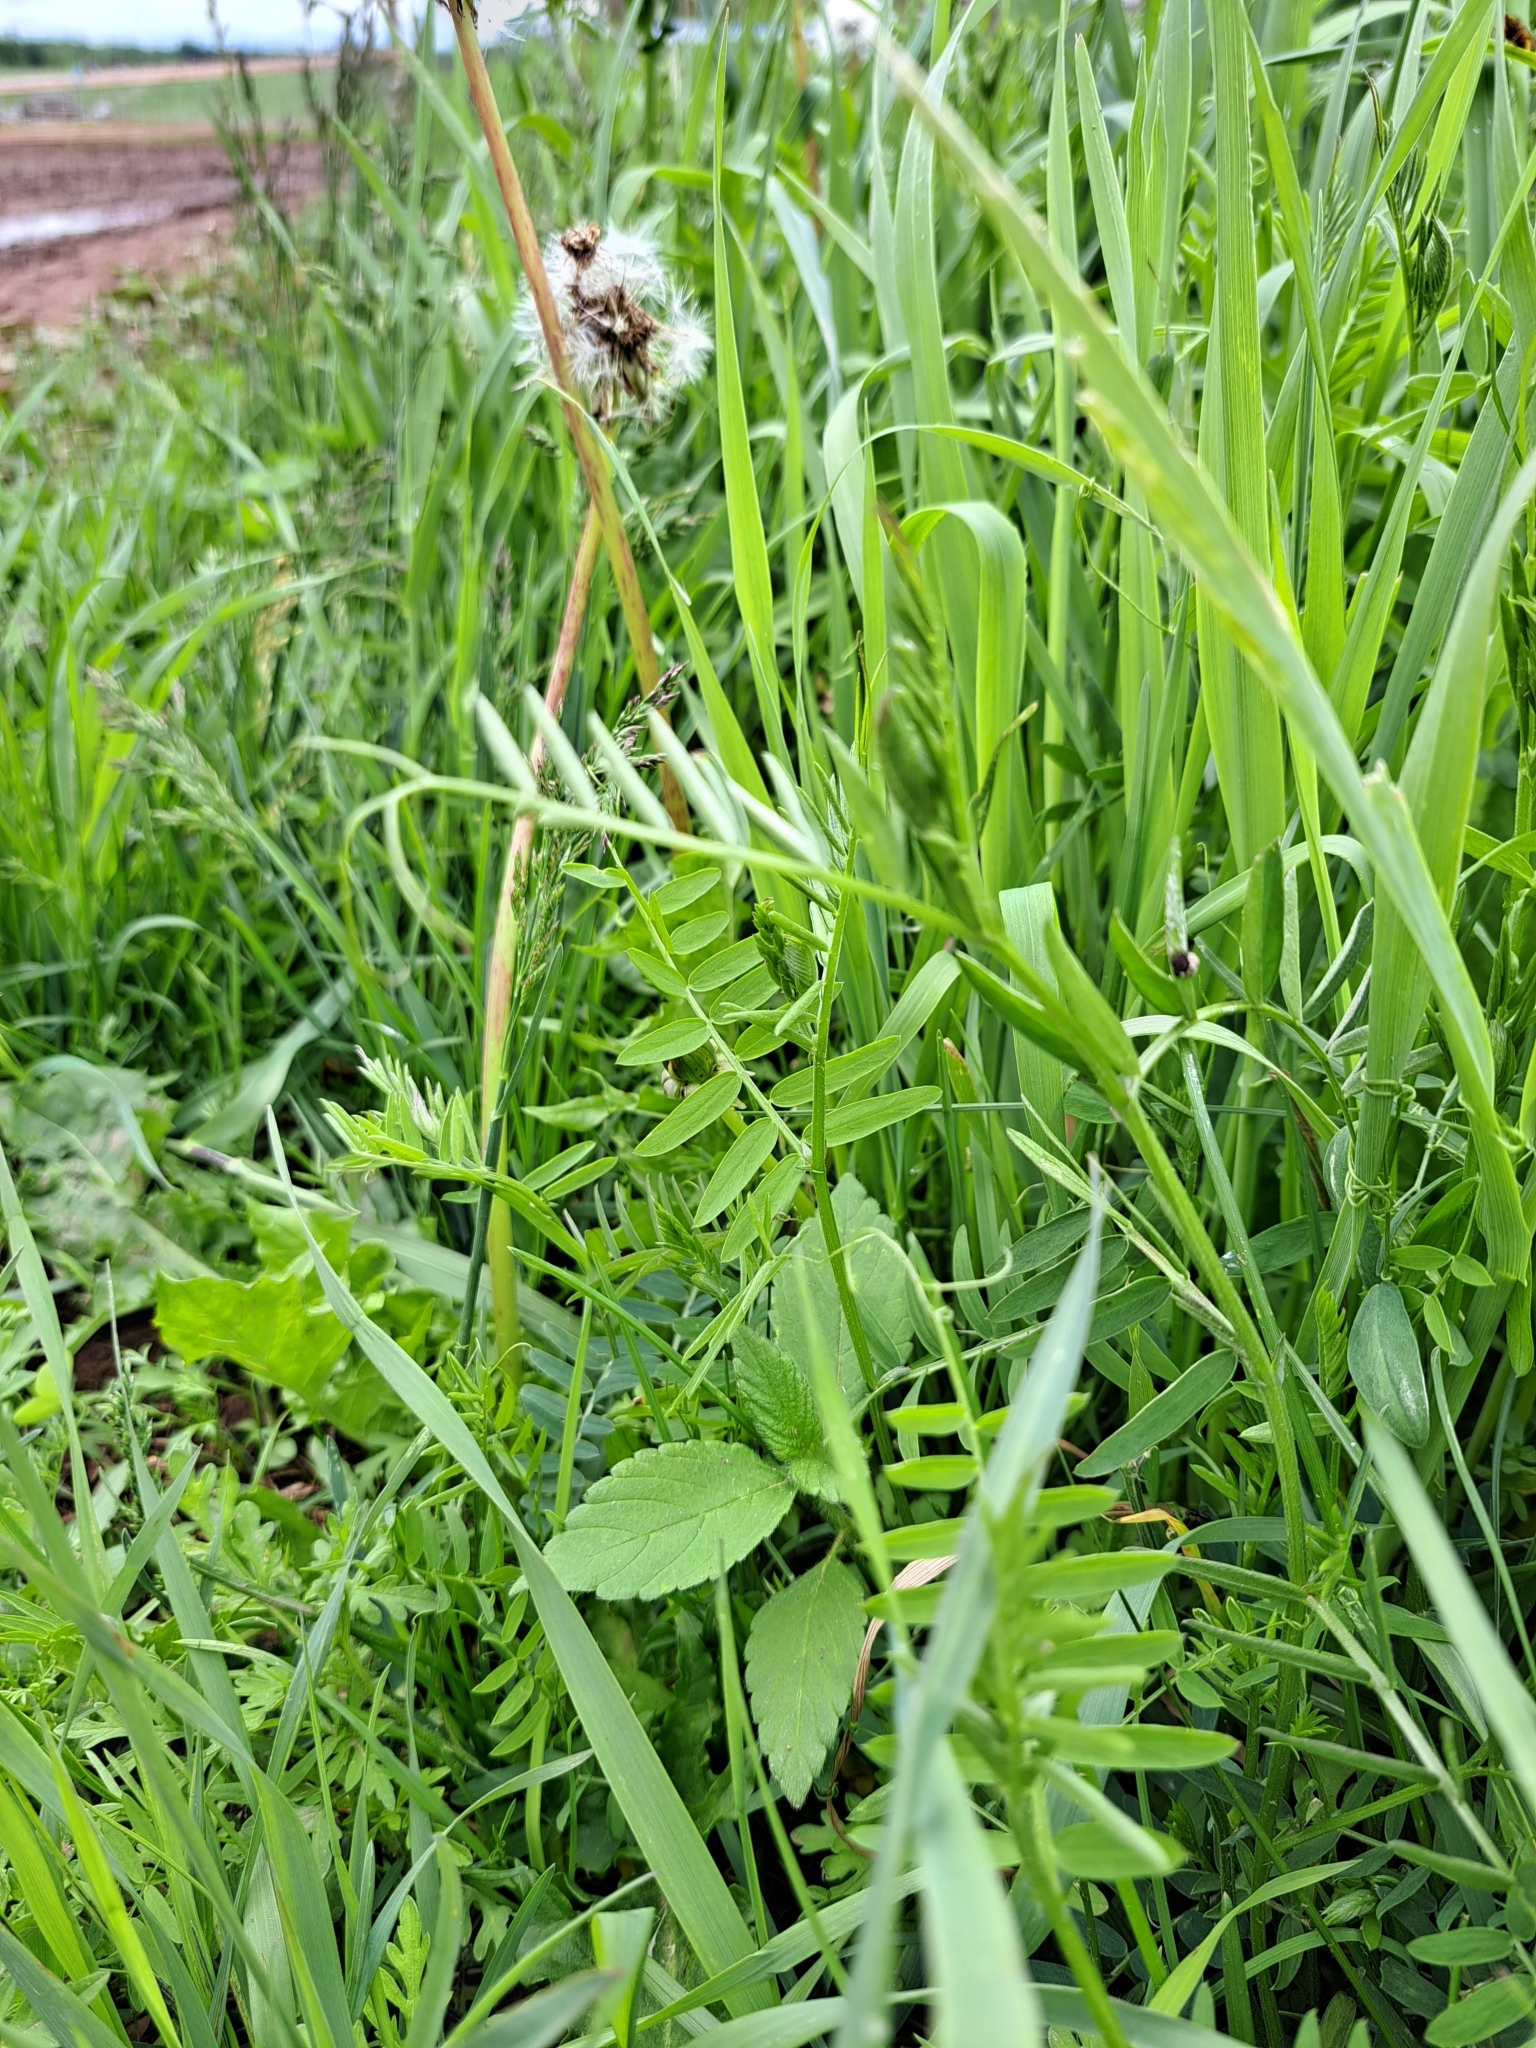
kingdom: Plantae
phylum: Tracheophyta
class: Magnoliopsida
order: Fabales
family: Fabaceae
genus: Vicia
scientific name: Vicia cracca
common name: Bird vetch
